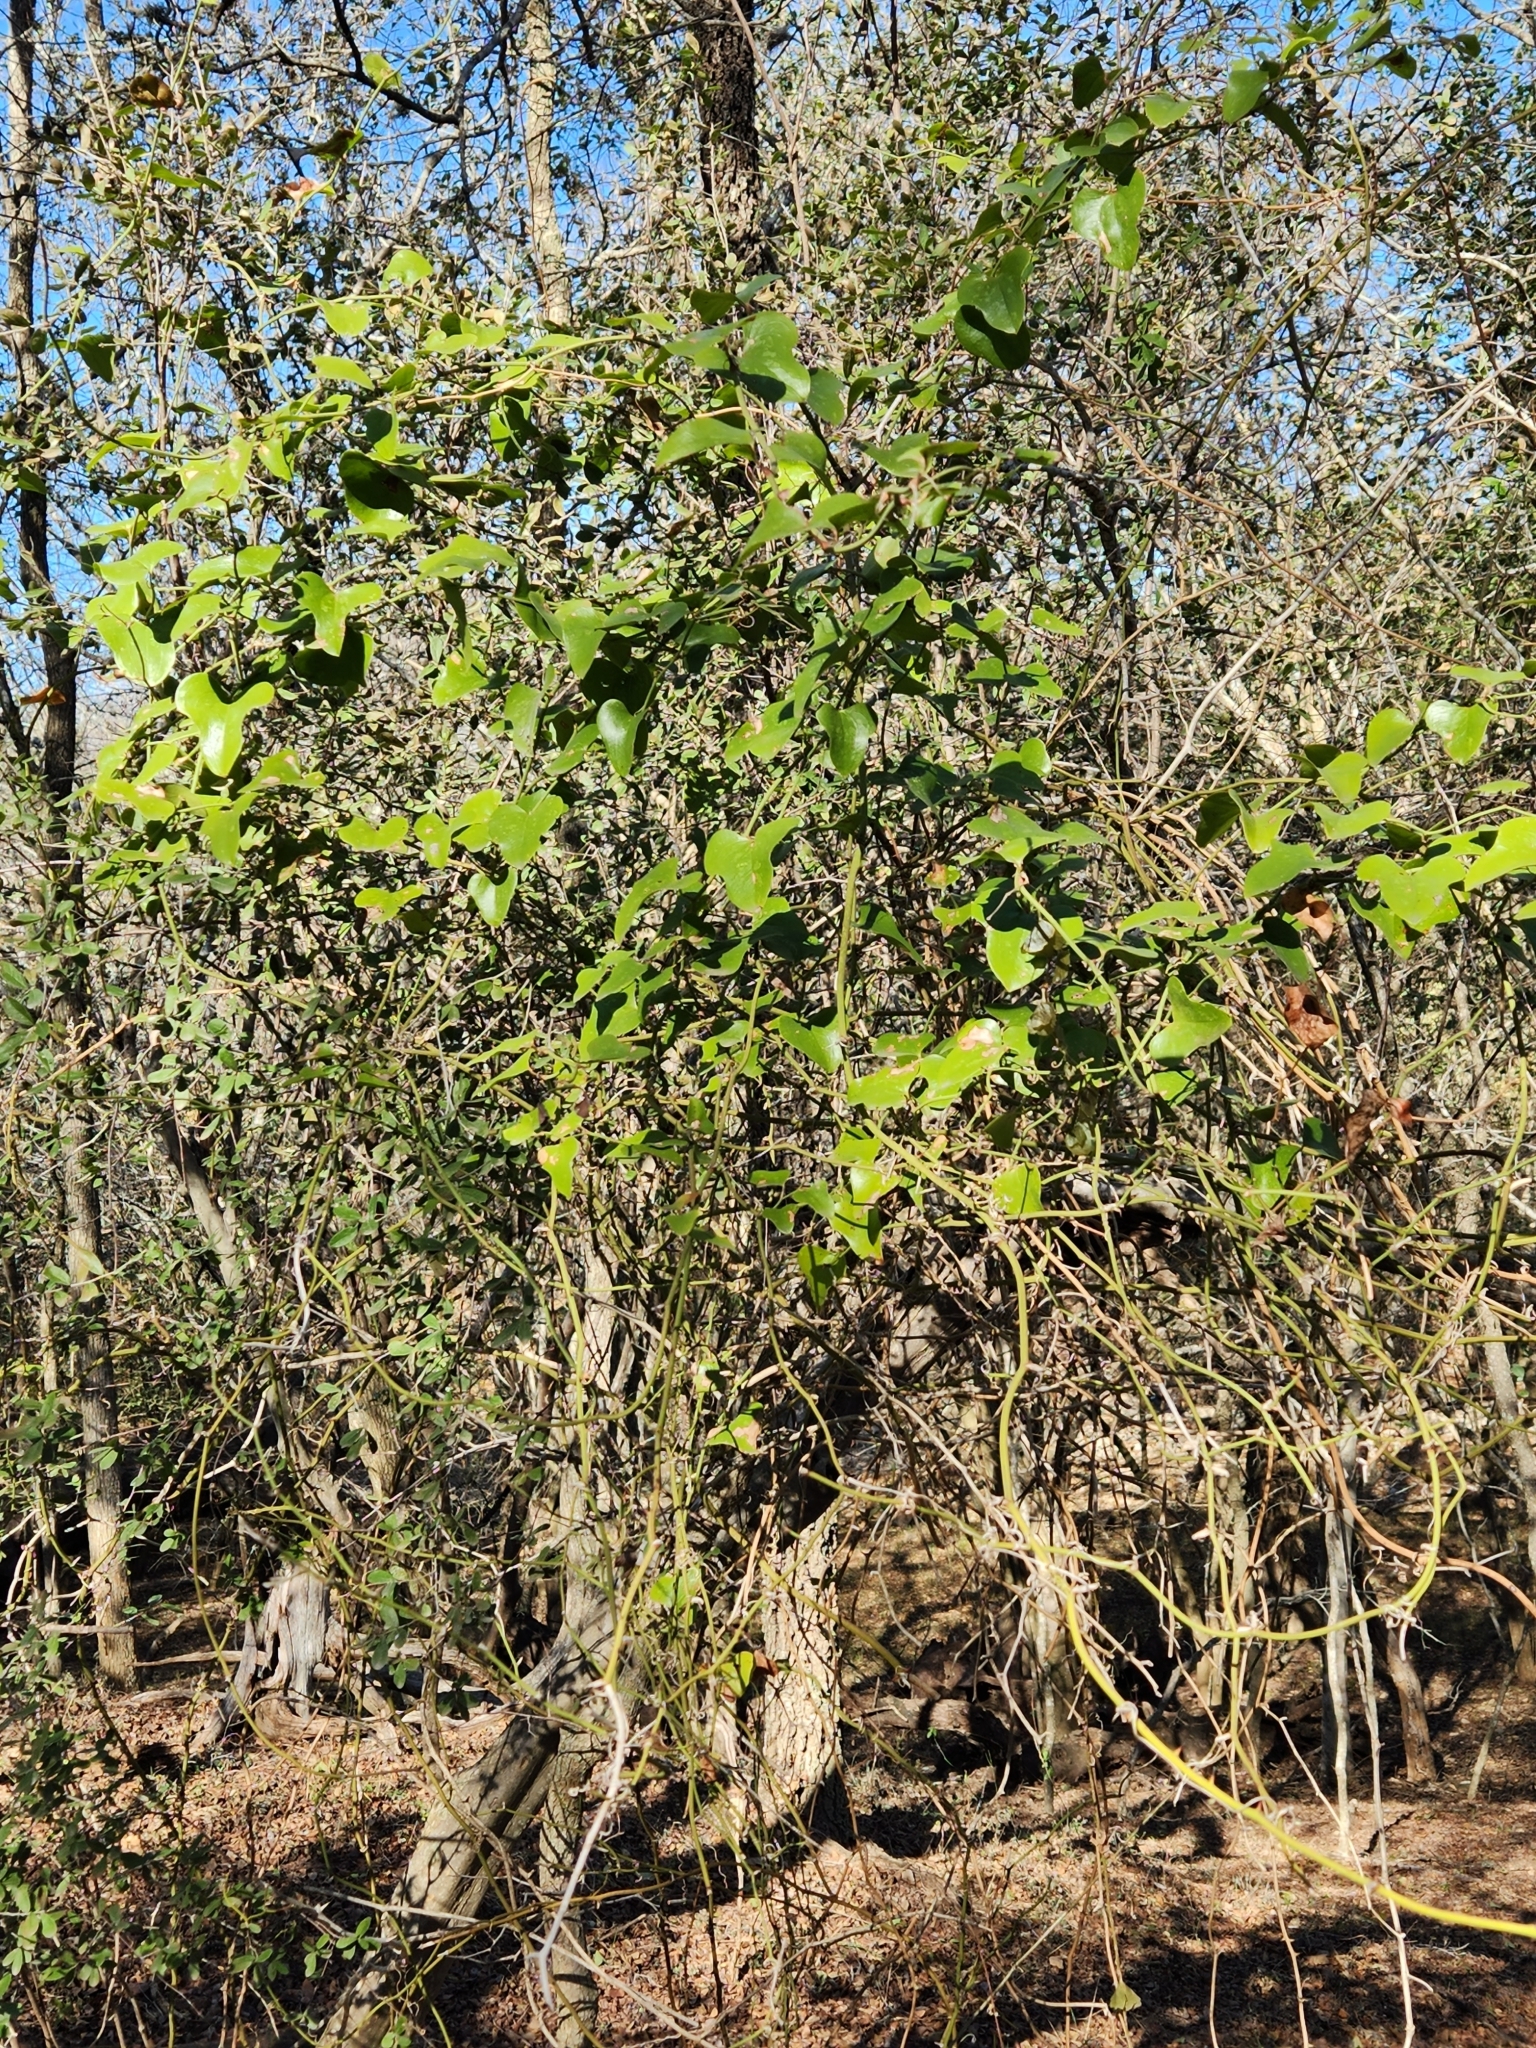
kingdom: Plantae
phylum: Tracheophyta
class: Liliopsida
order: Liliales
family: Smilacaceae
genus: Smilax
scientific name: Smilax bona-nox
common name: Catbrier
